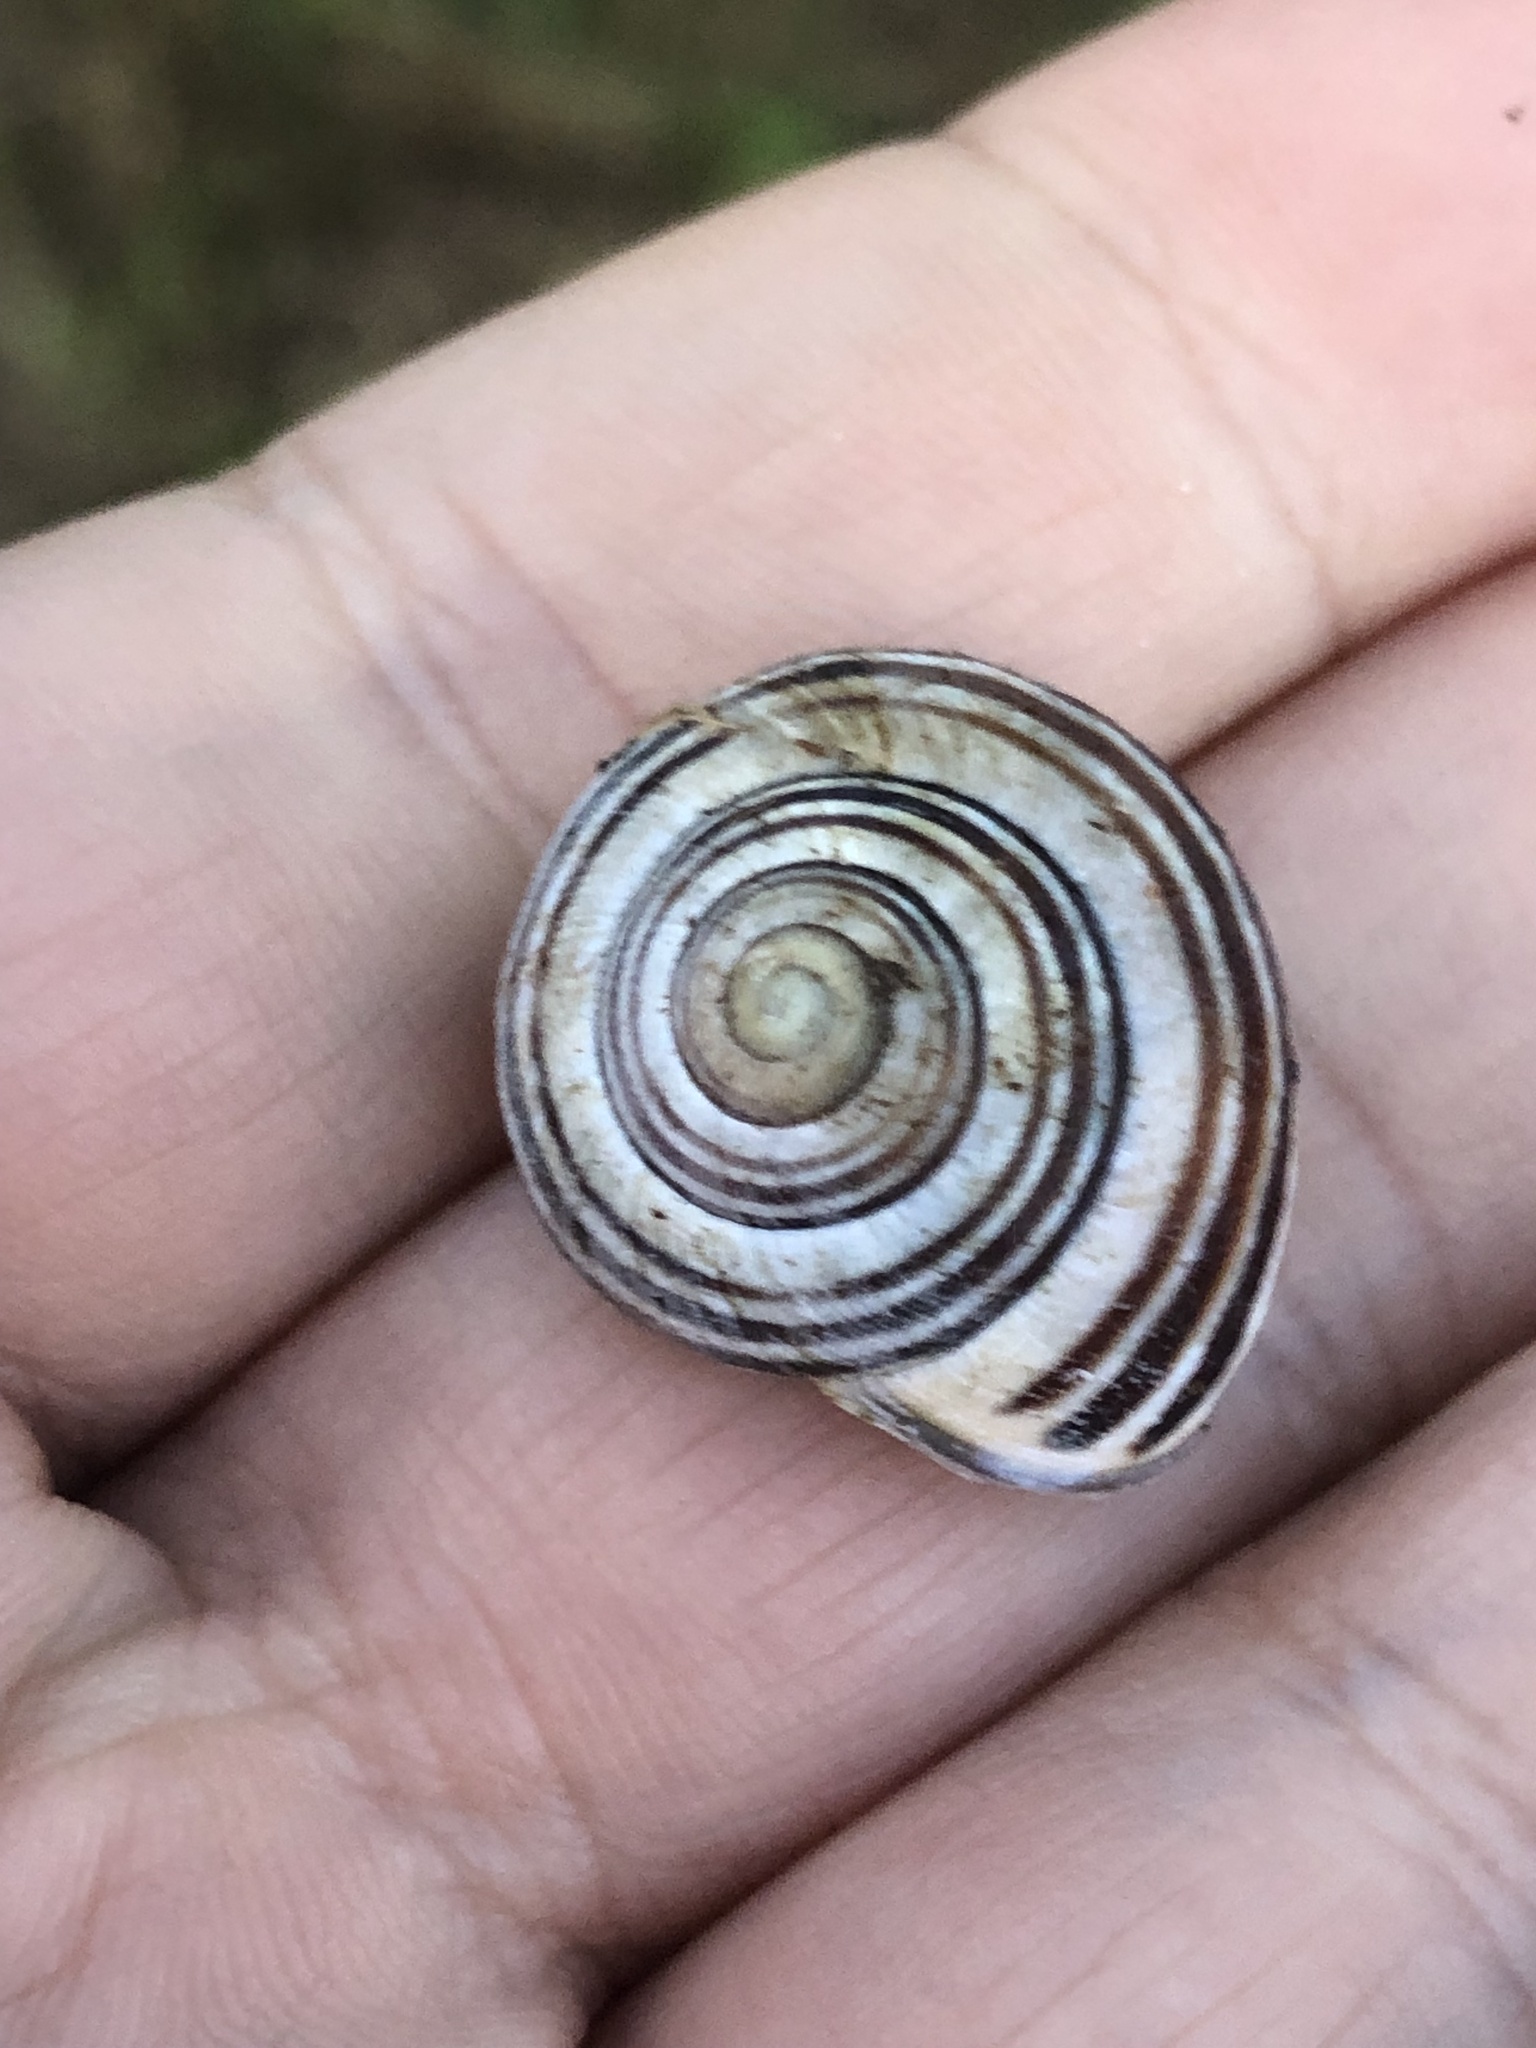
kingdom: Animalia
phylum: Mollusca
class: Gastropoda
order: Stylommatophora
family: Helicidae
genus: Cepaea
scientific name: Cepaea nemoralis
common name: Grovesnail
